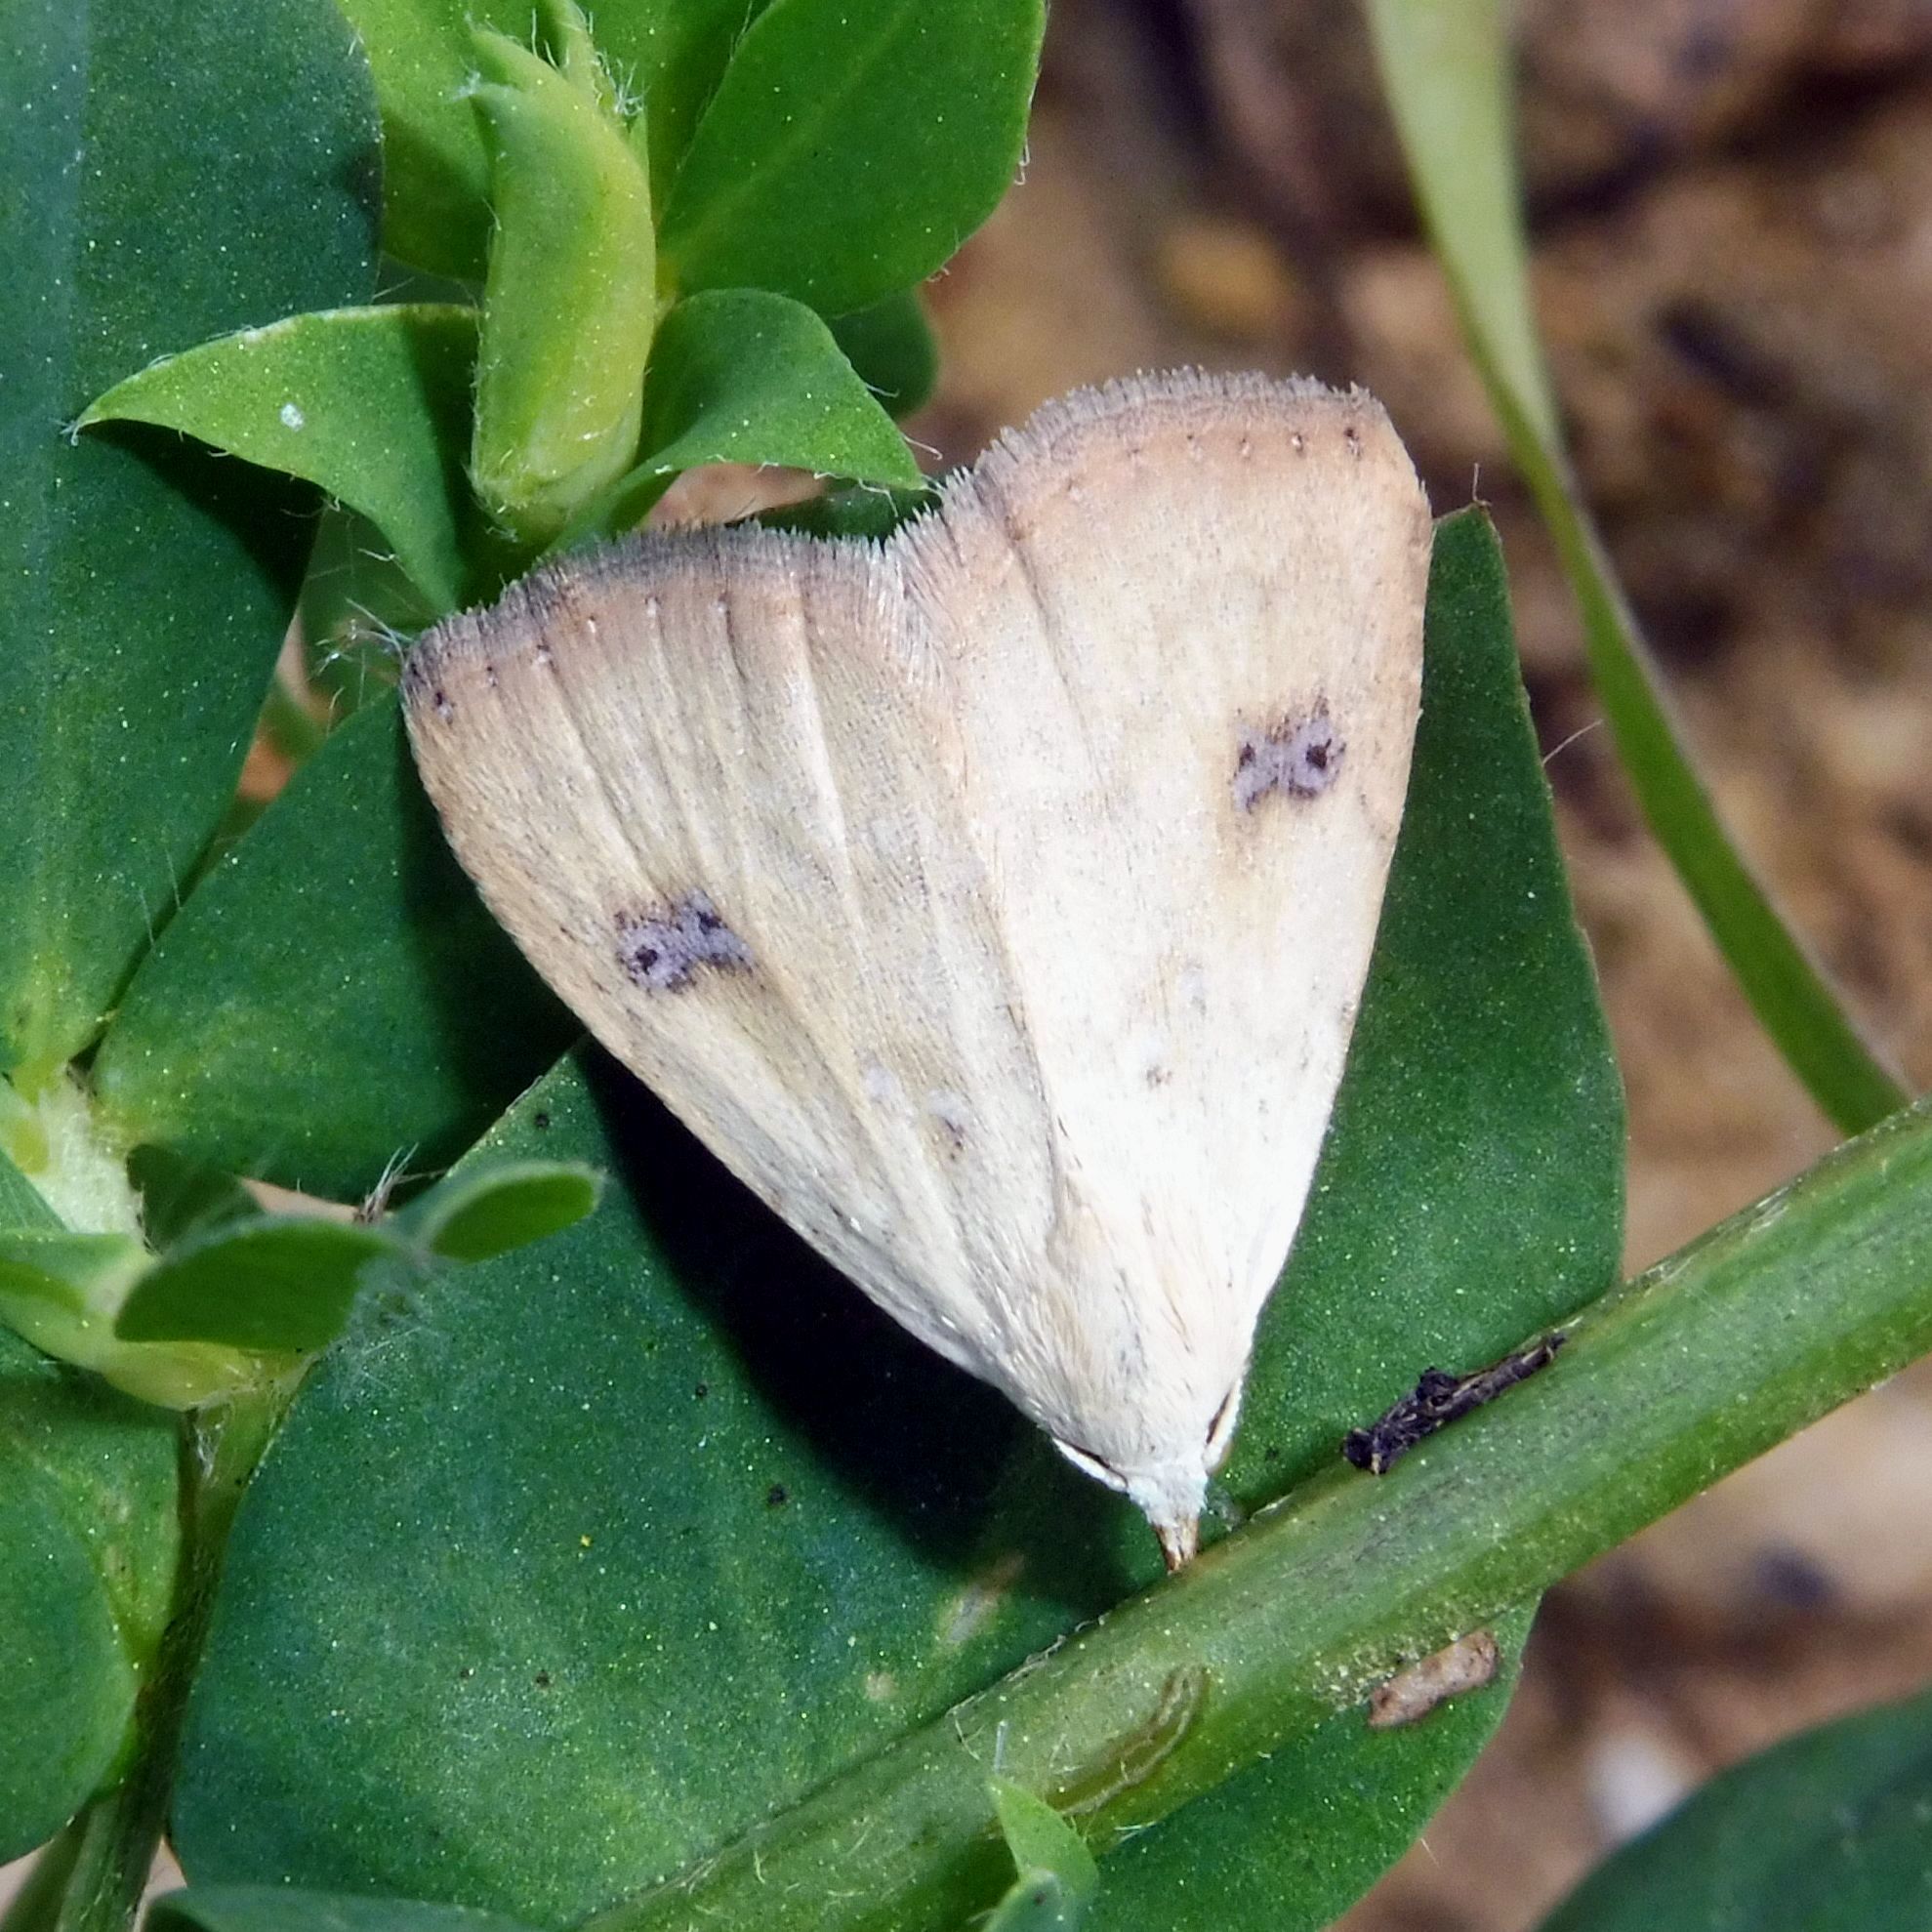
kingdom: Animalia
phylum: Arthropoda
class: Insecta
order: Lepidoptera
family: Erebidae
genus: Rivula
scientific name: Rivula sericealis
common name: Straw dot
